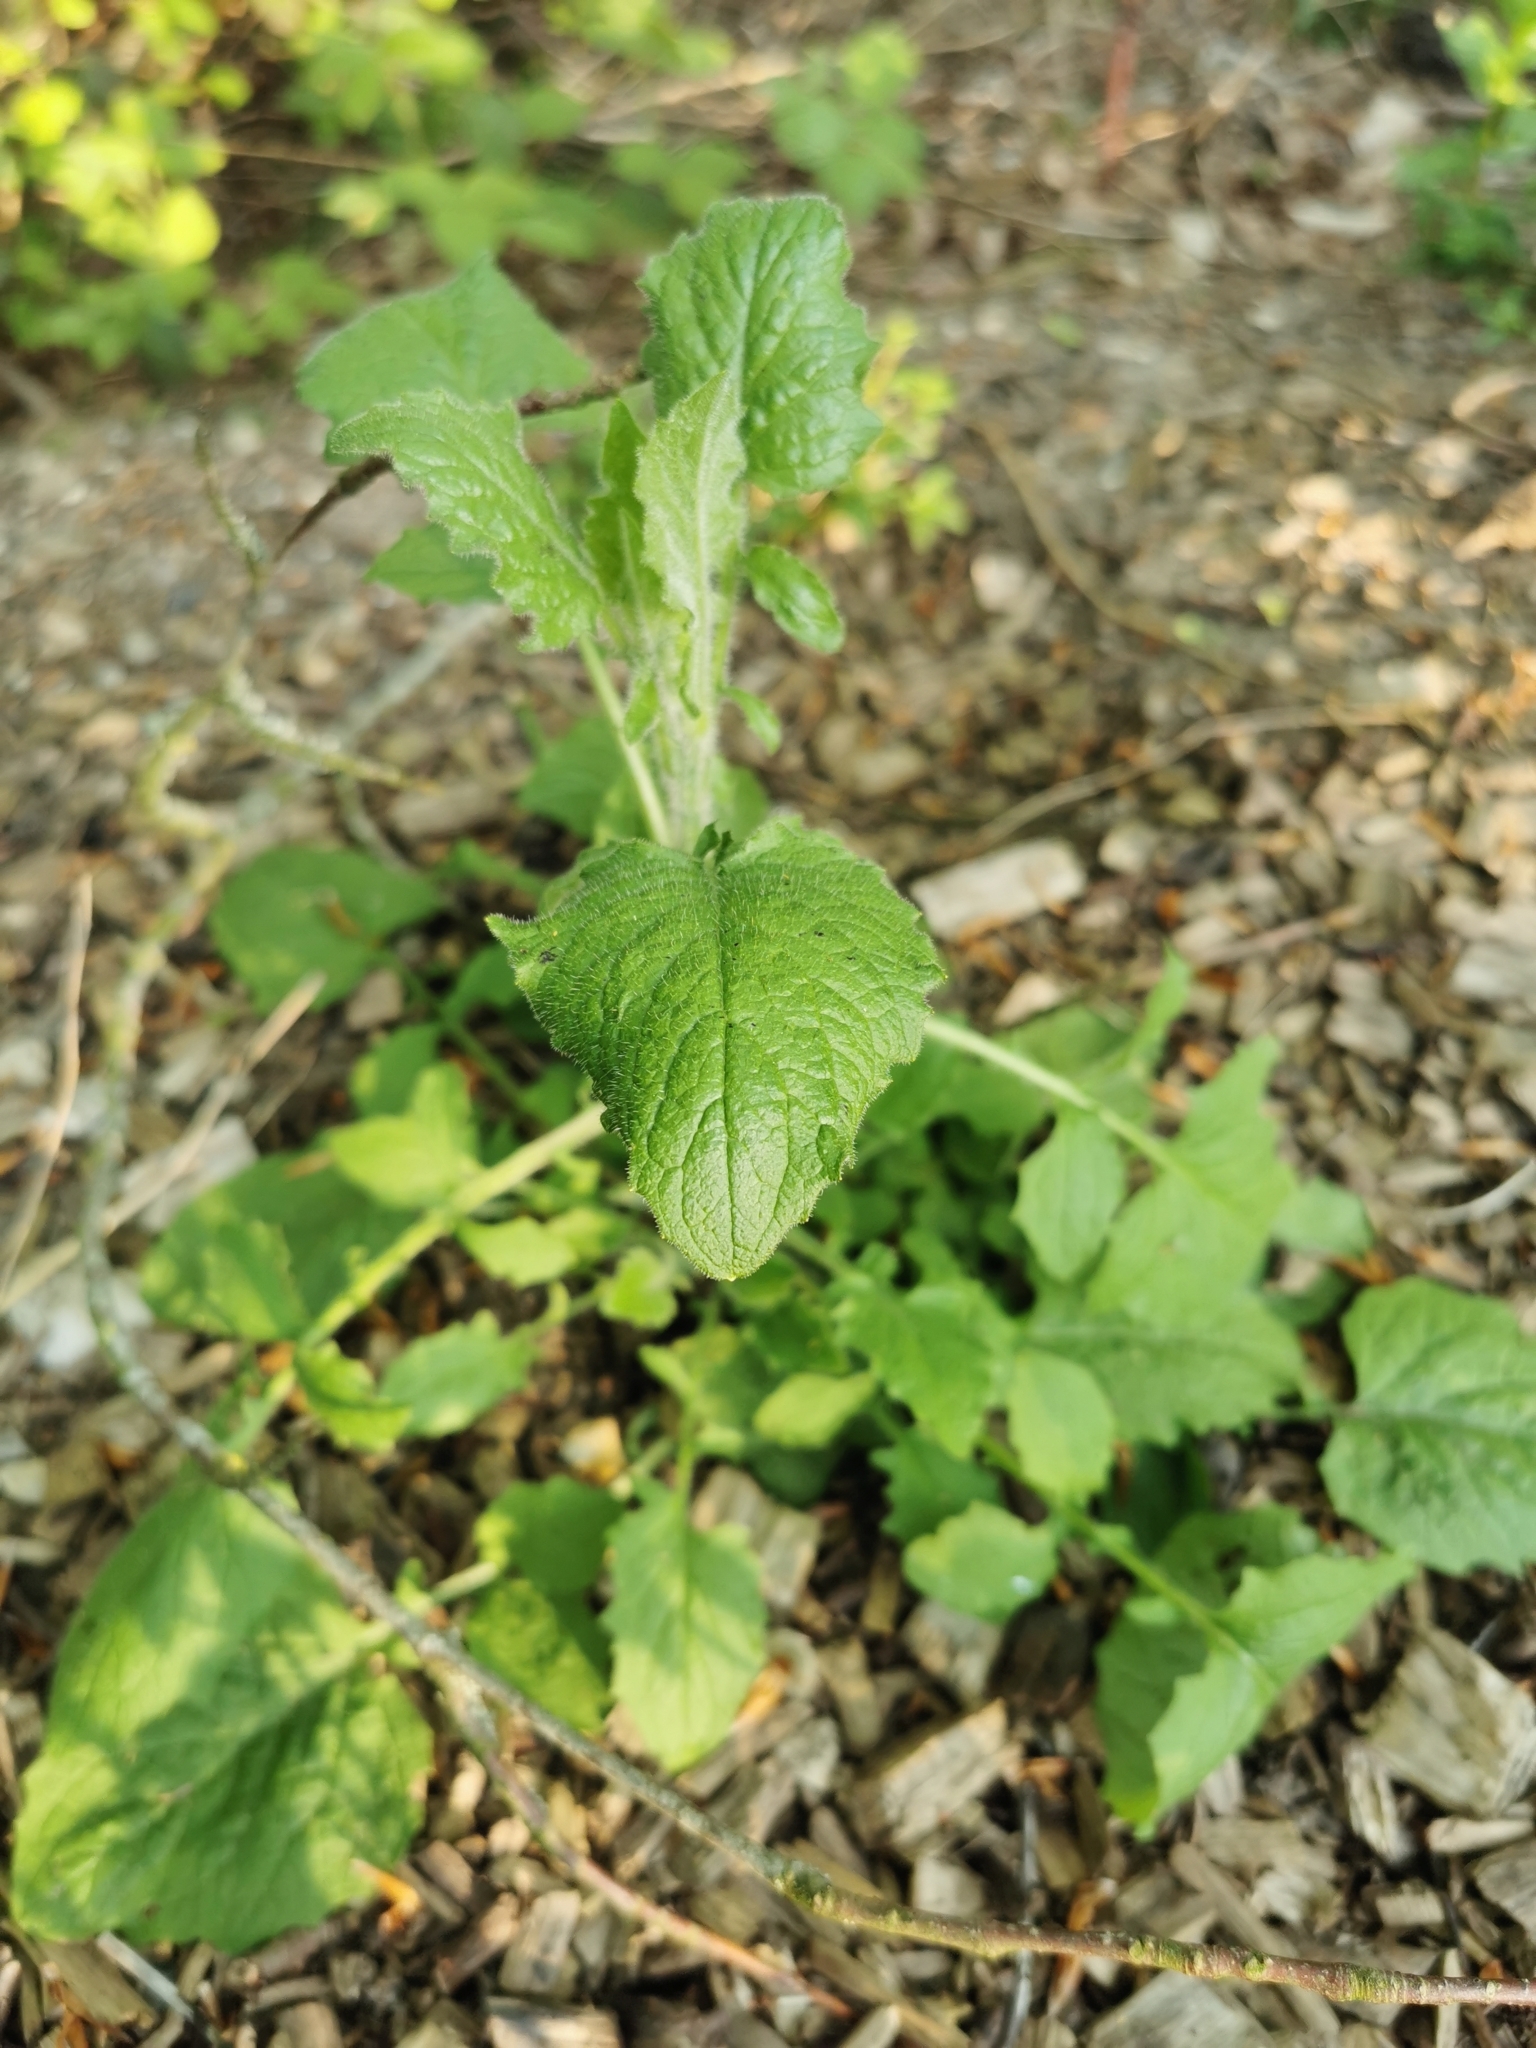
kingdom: Plantae
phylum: Tracheophyta
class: Magnoliopsida
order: Asterales
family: Asteraceae
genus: Lapsana
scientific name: Lapsana communis
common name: Nipplewort
